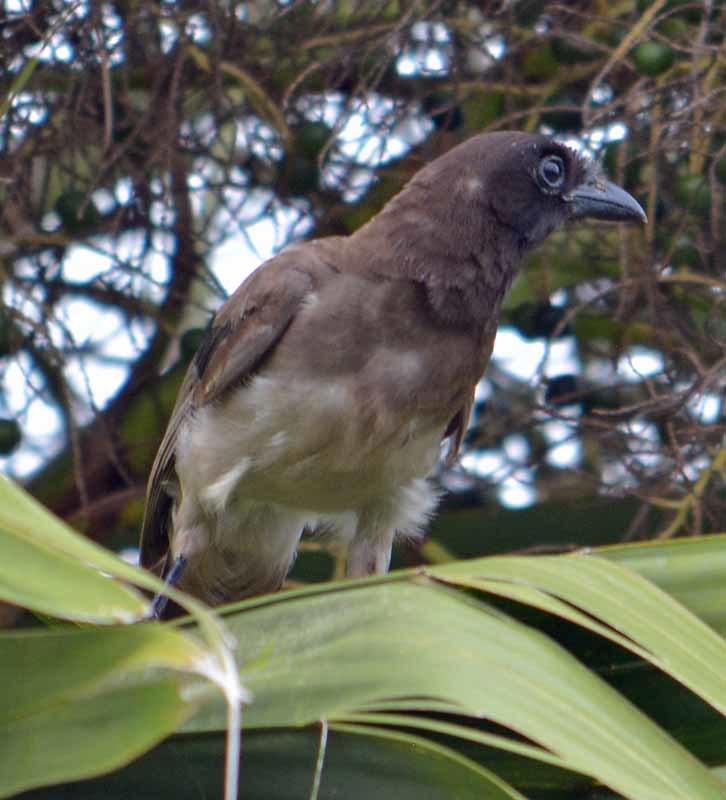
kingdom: Animalia
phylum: Chordata
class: Aves
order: Passeriformes
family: Corvidae
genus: Psilorhinus
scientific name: Psilorhinus morio
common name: Brown jay
